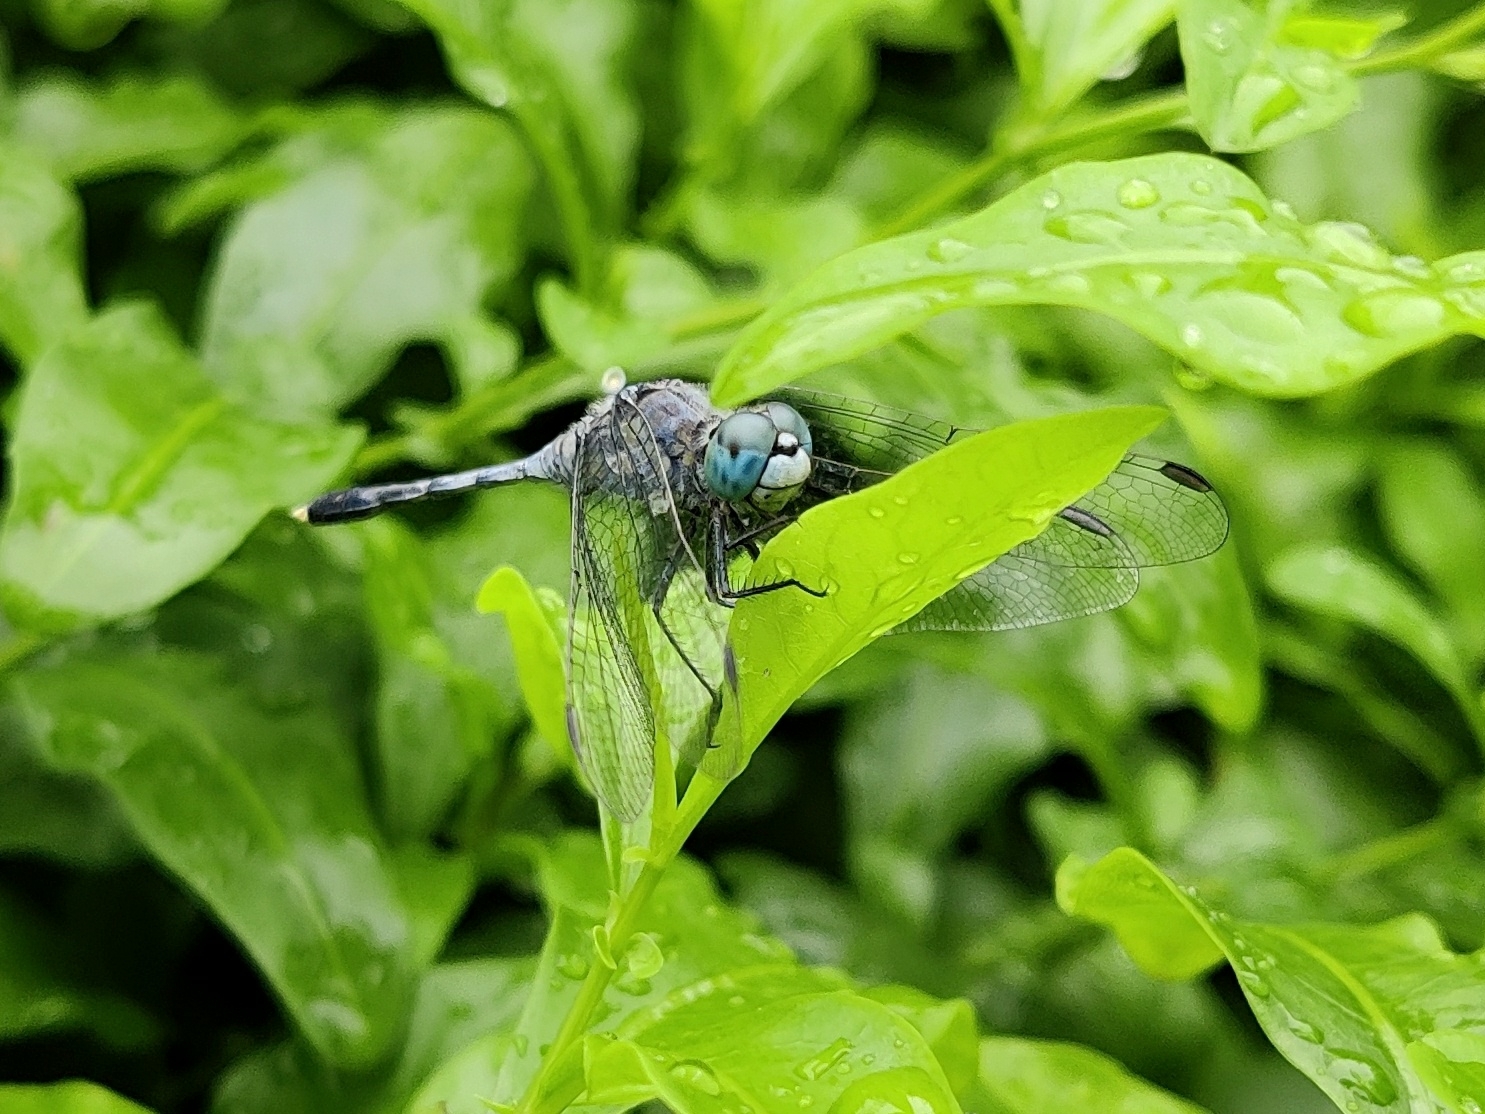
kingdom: Animalia
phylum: Arthropoda
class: Insecta
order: Odonata
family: Libellulidae
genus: Diplacodes
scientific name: Diplacodes trivialis
